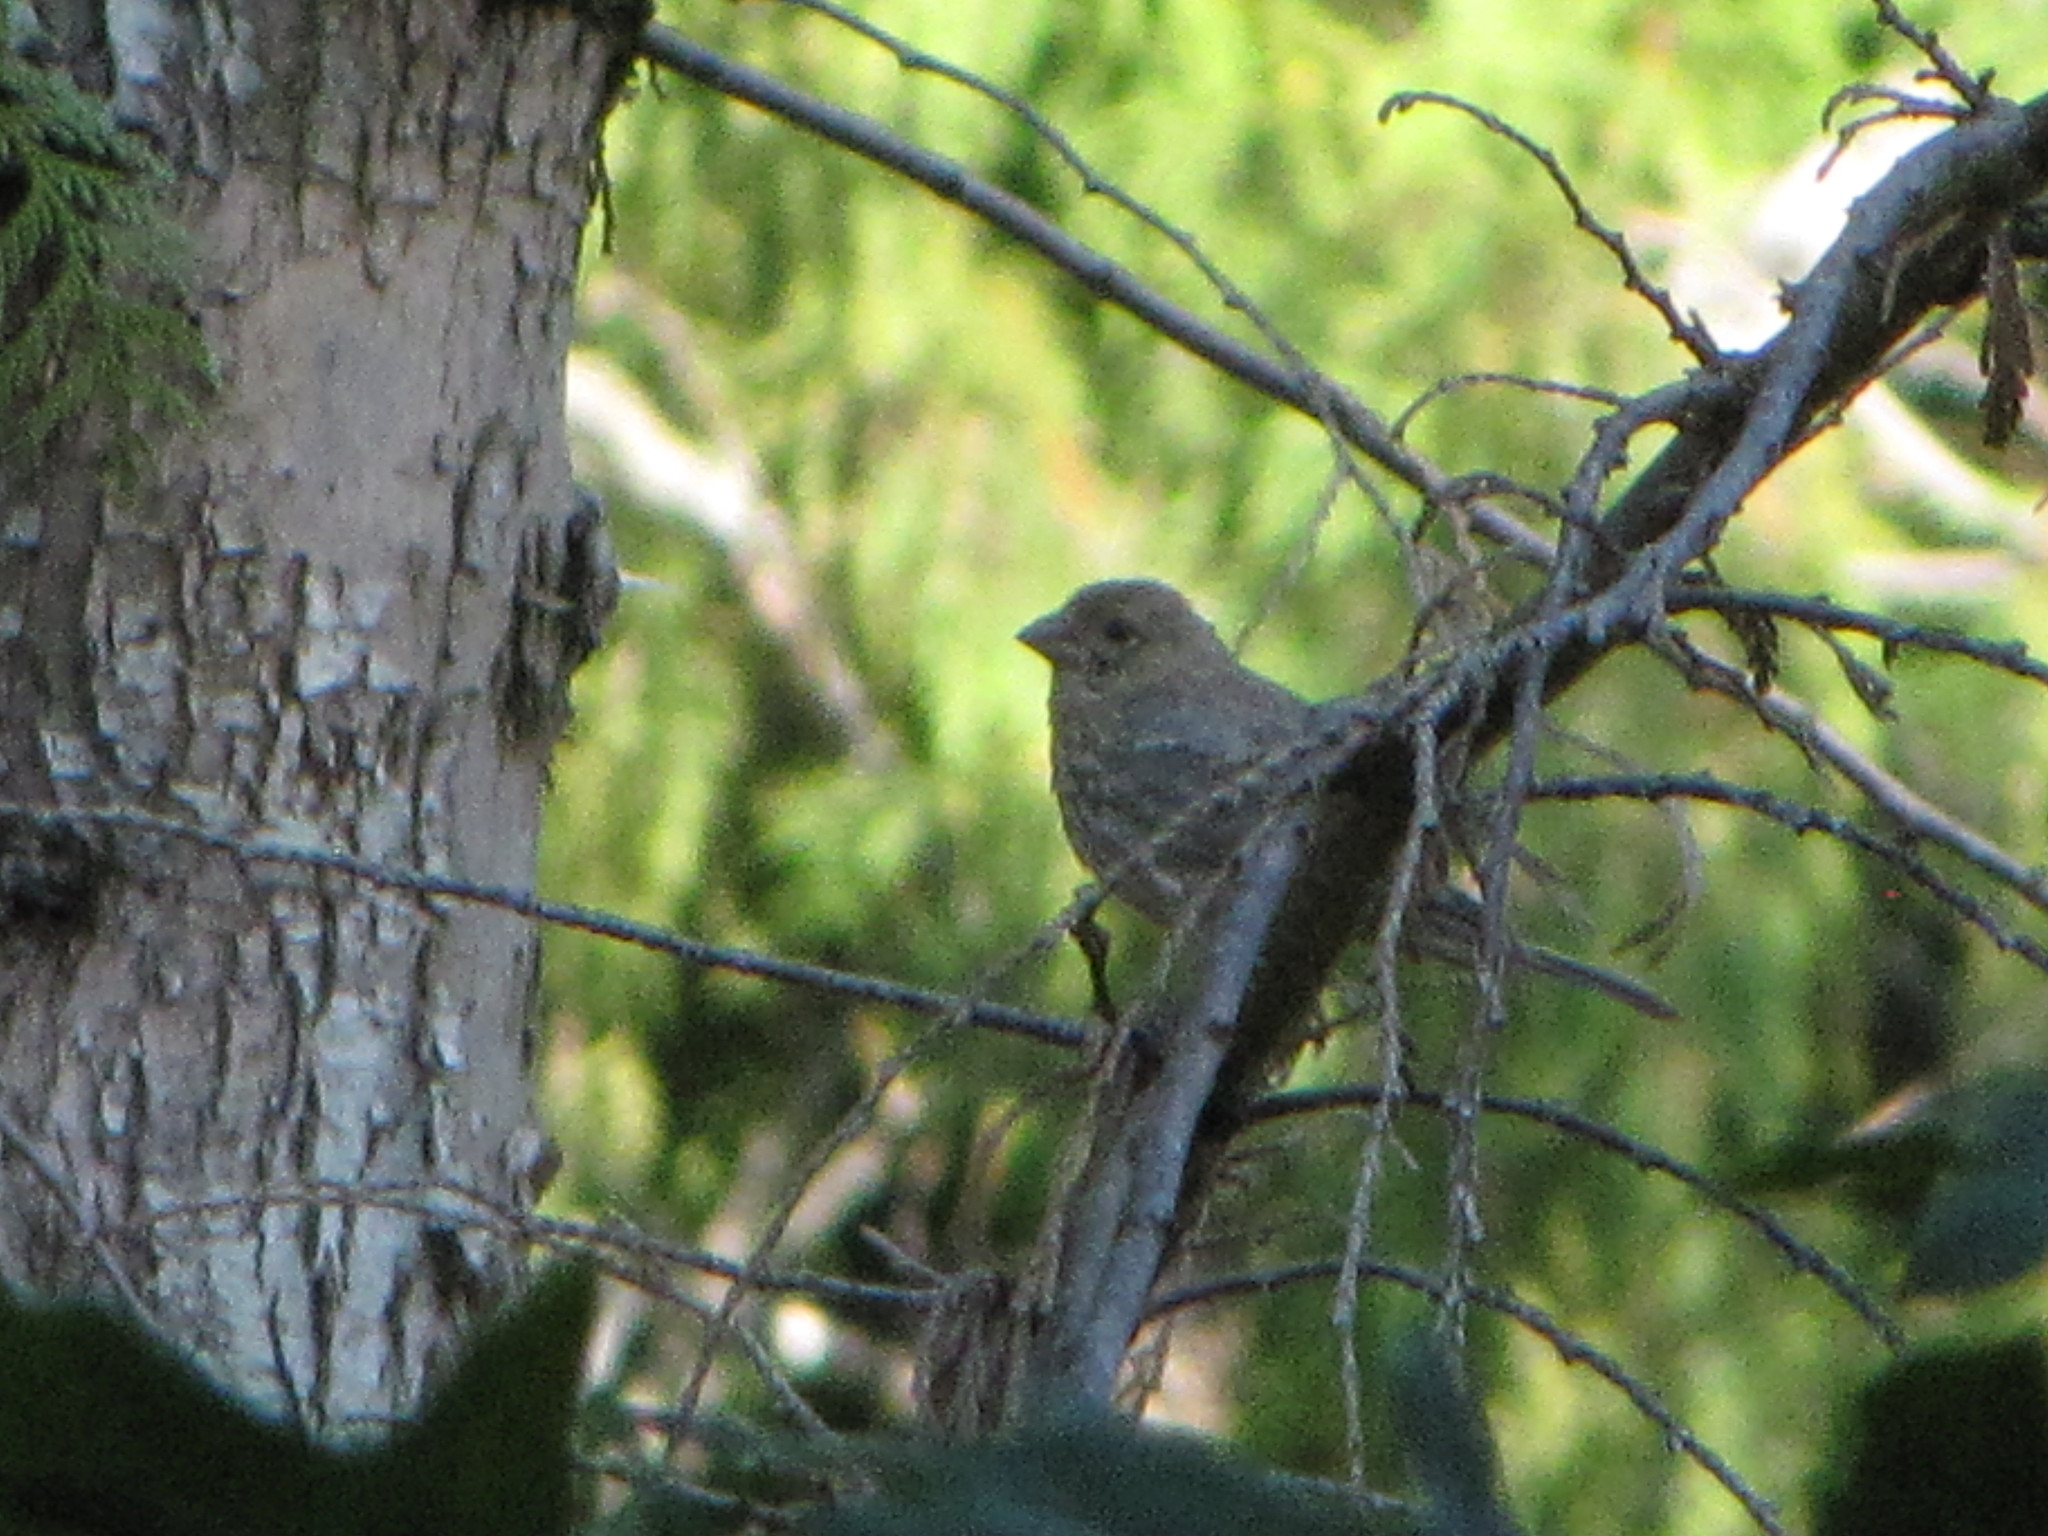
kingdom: Animalia
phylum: Chordata
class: Aves
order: Passeriformes
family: Fringillidae
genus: Haemorhous
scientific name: Haemorhous mexicanus
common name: House finch
